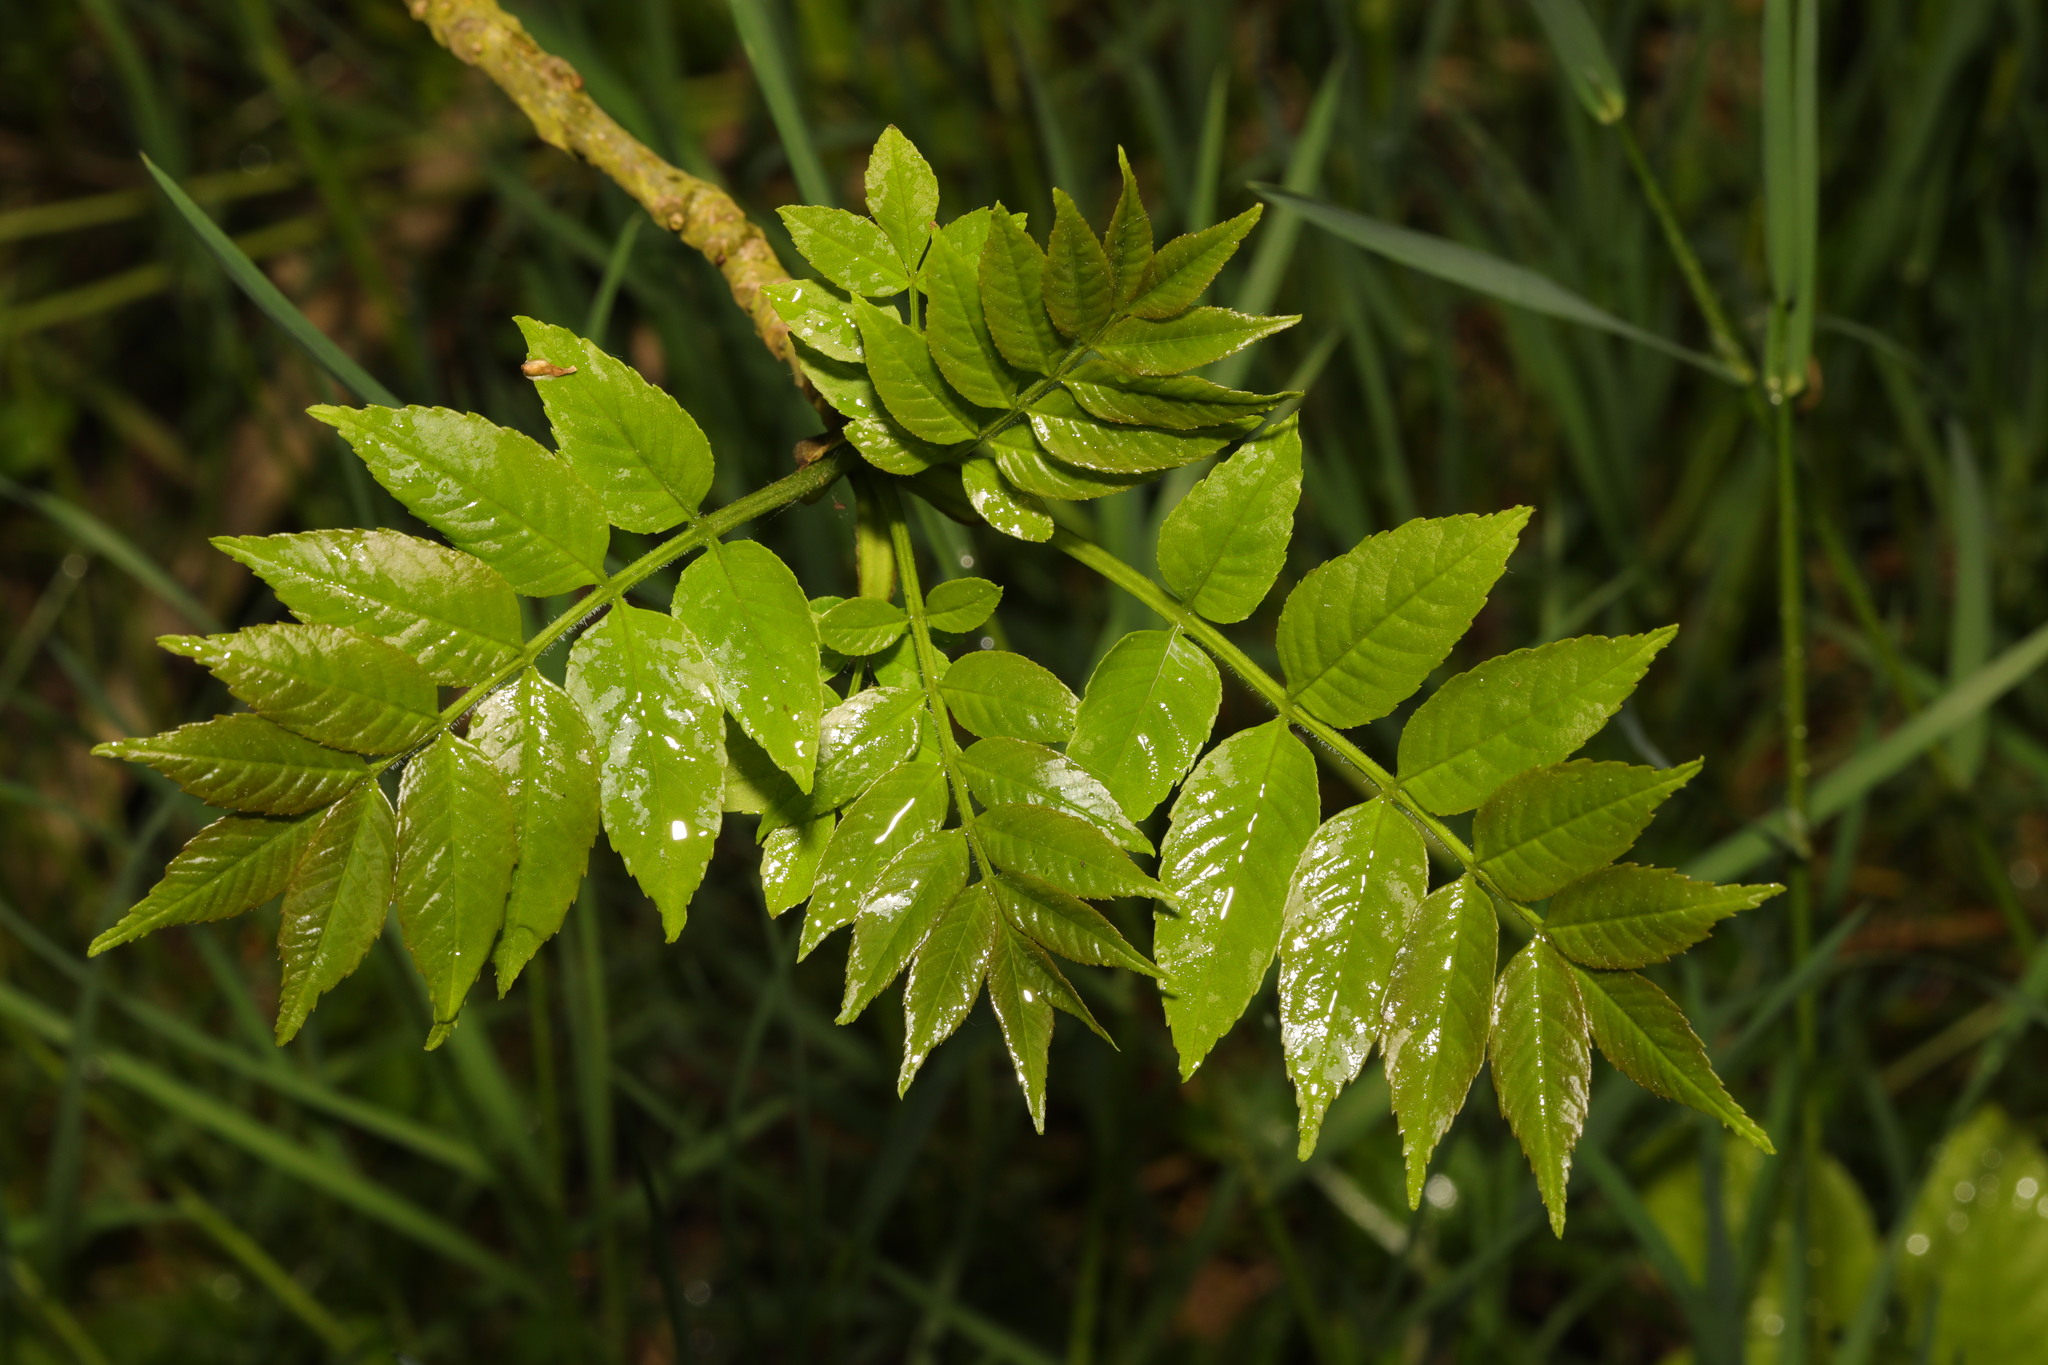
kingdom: Plantae
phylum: Tracheophyta
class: Magnoliopsida
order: Lamiales
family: Oleaceae
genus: Fraxinus
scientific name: Fraxinus excelsior
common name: European ash
